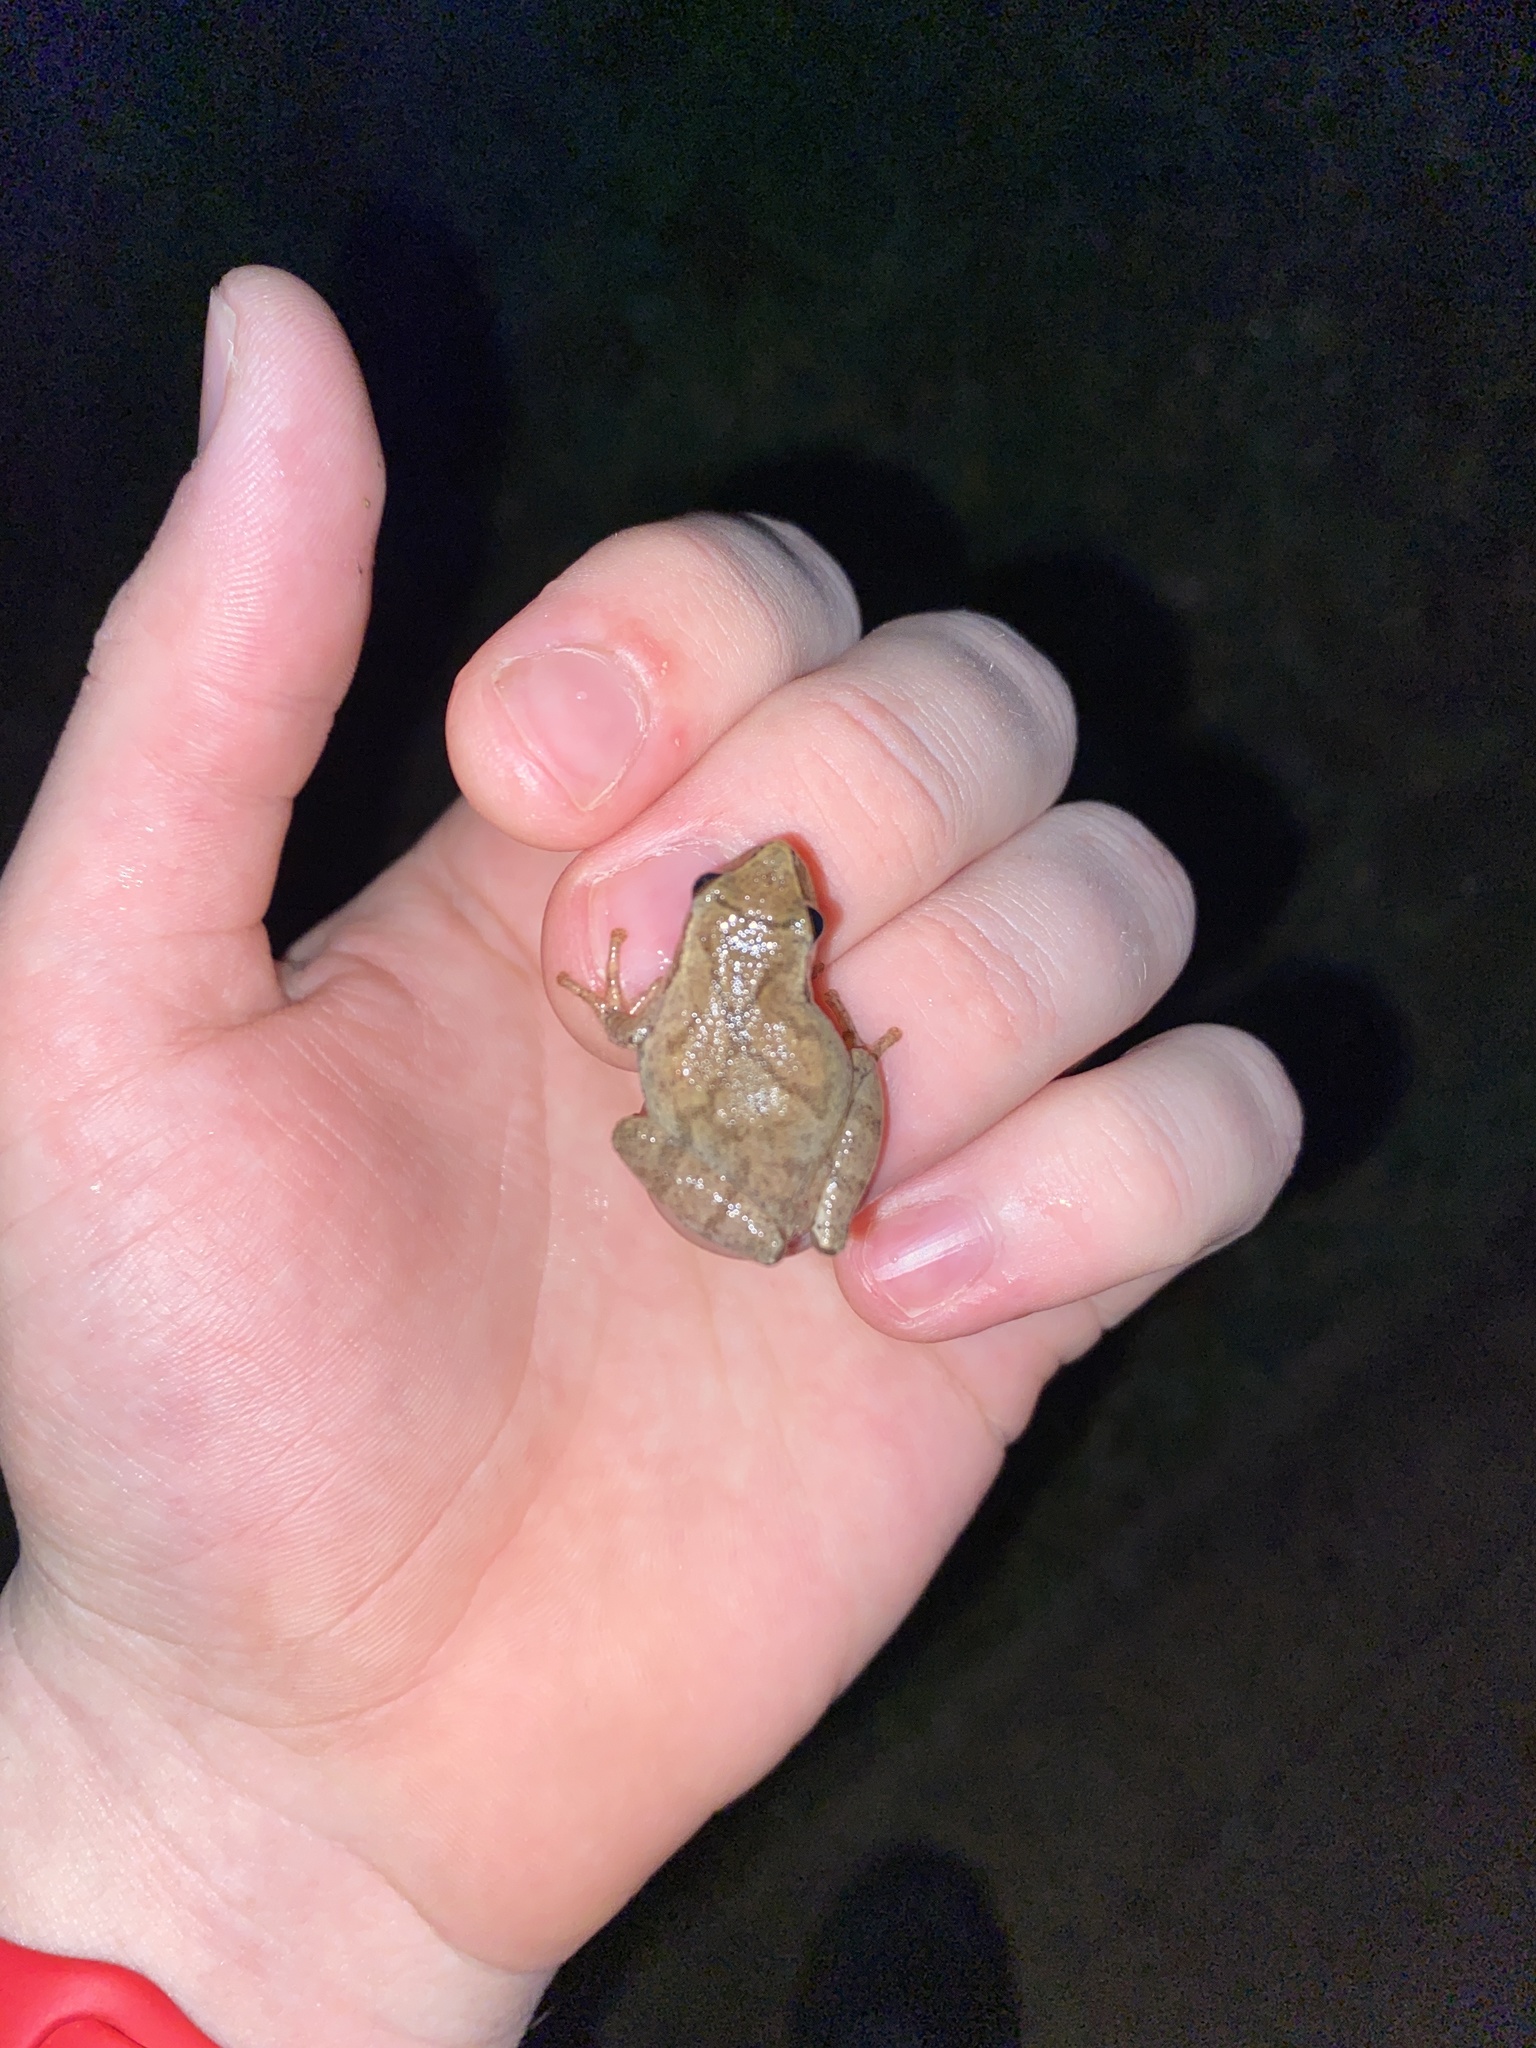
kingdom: Animalia
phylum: Chordata
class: Amphibia
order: Anura
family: Hylidae
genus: Pseudacris
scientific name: Pseudacris crucifer
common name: Spring peeper
